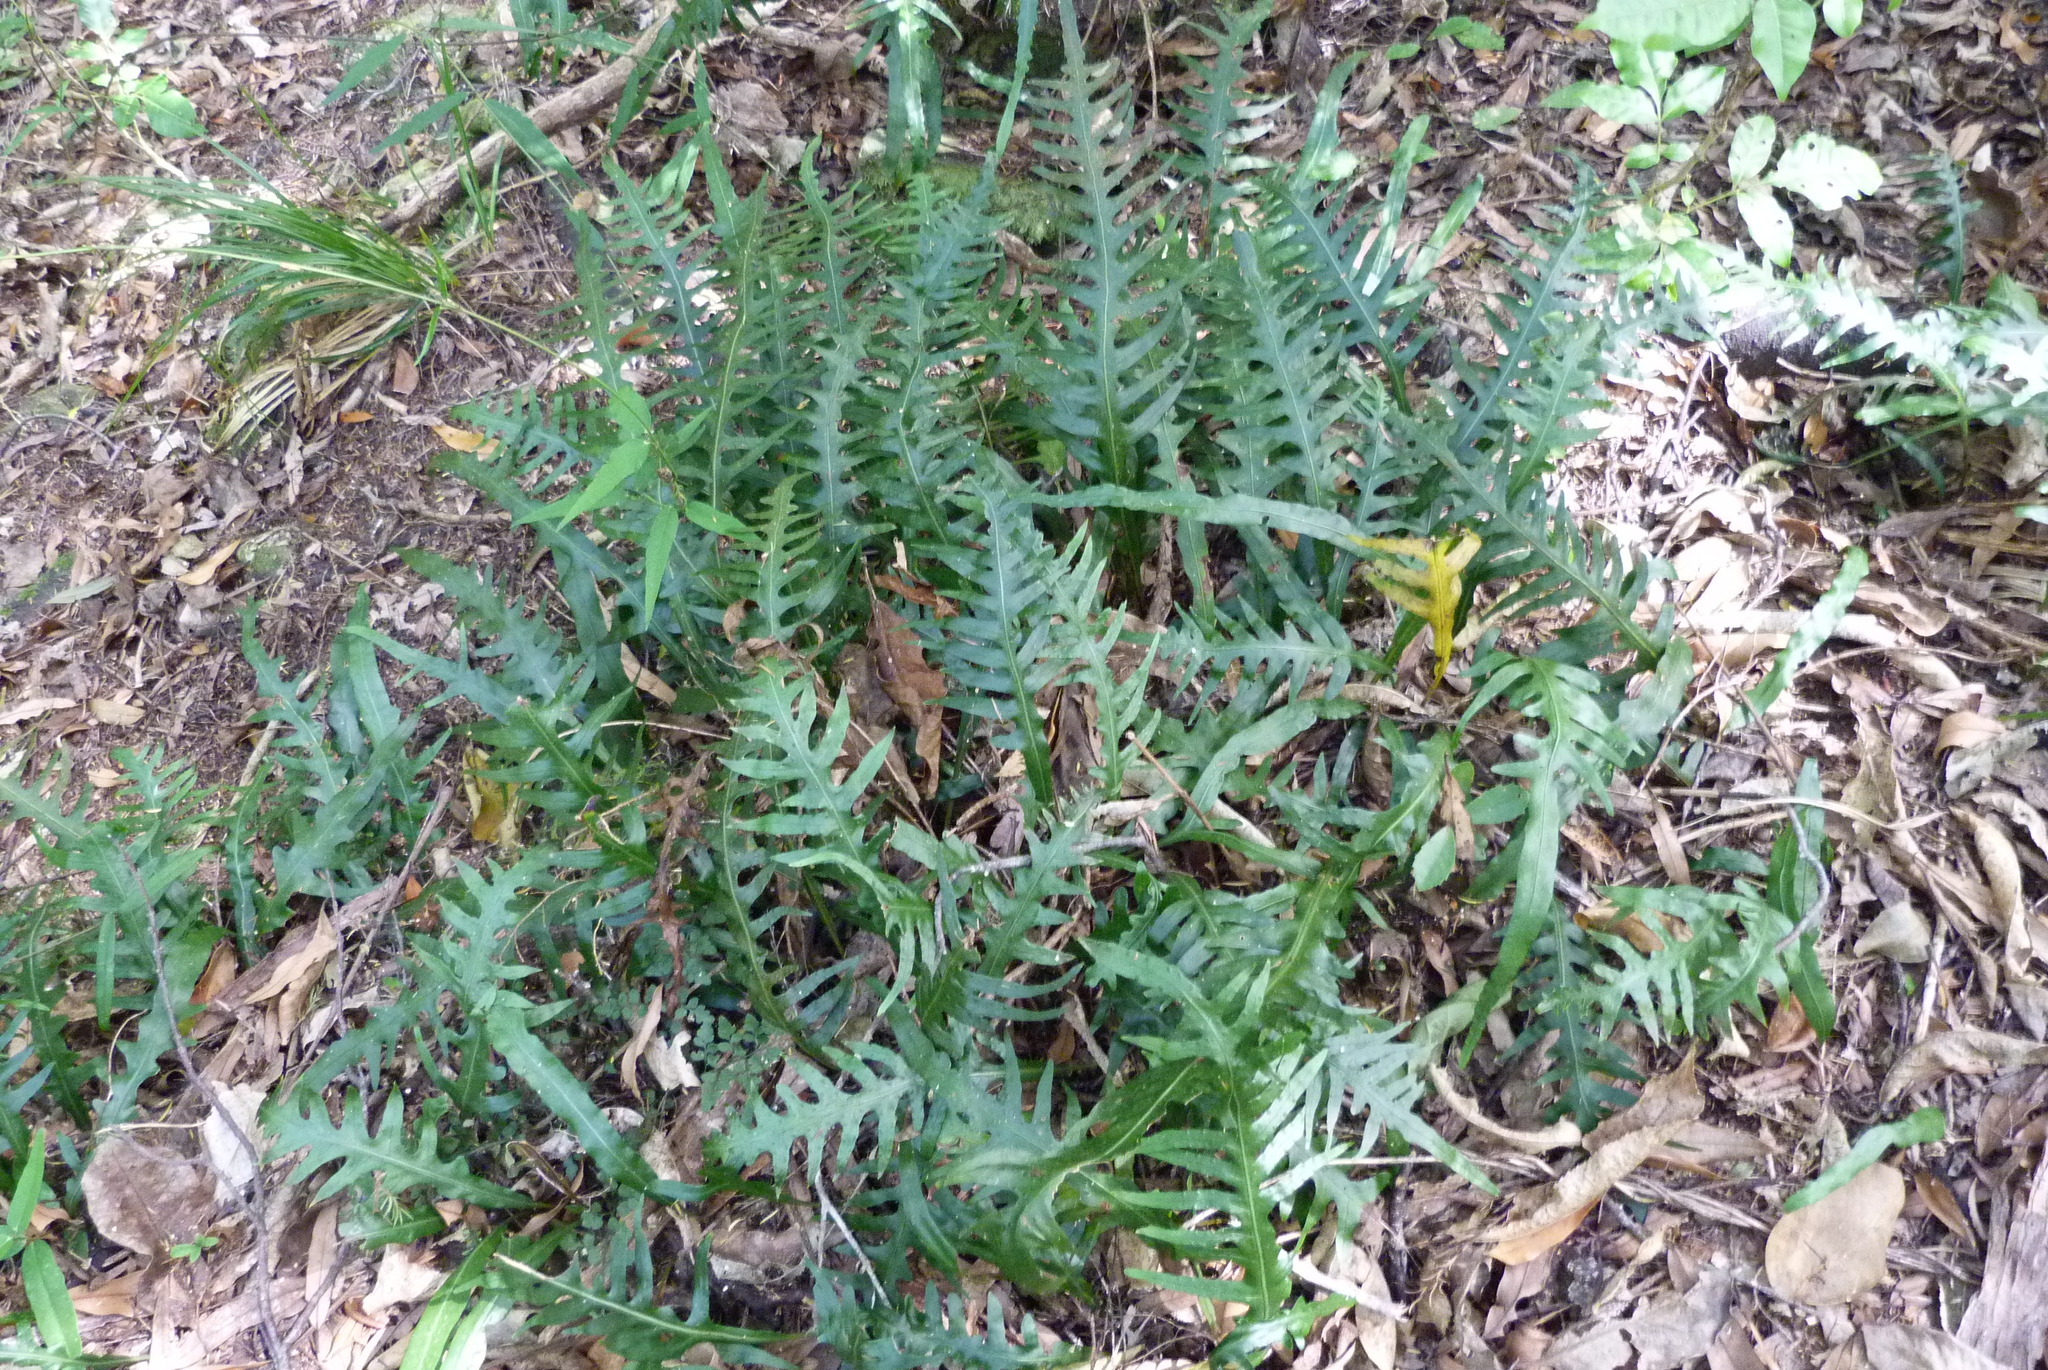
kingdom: Plantae
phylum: Tracheophyta
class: Polypodiopsida
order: Polypodiales
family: Polypodiaceae
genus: Lecanopteris
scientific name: Lecanopteris scandens
